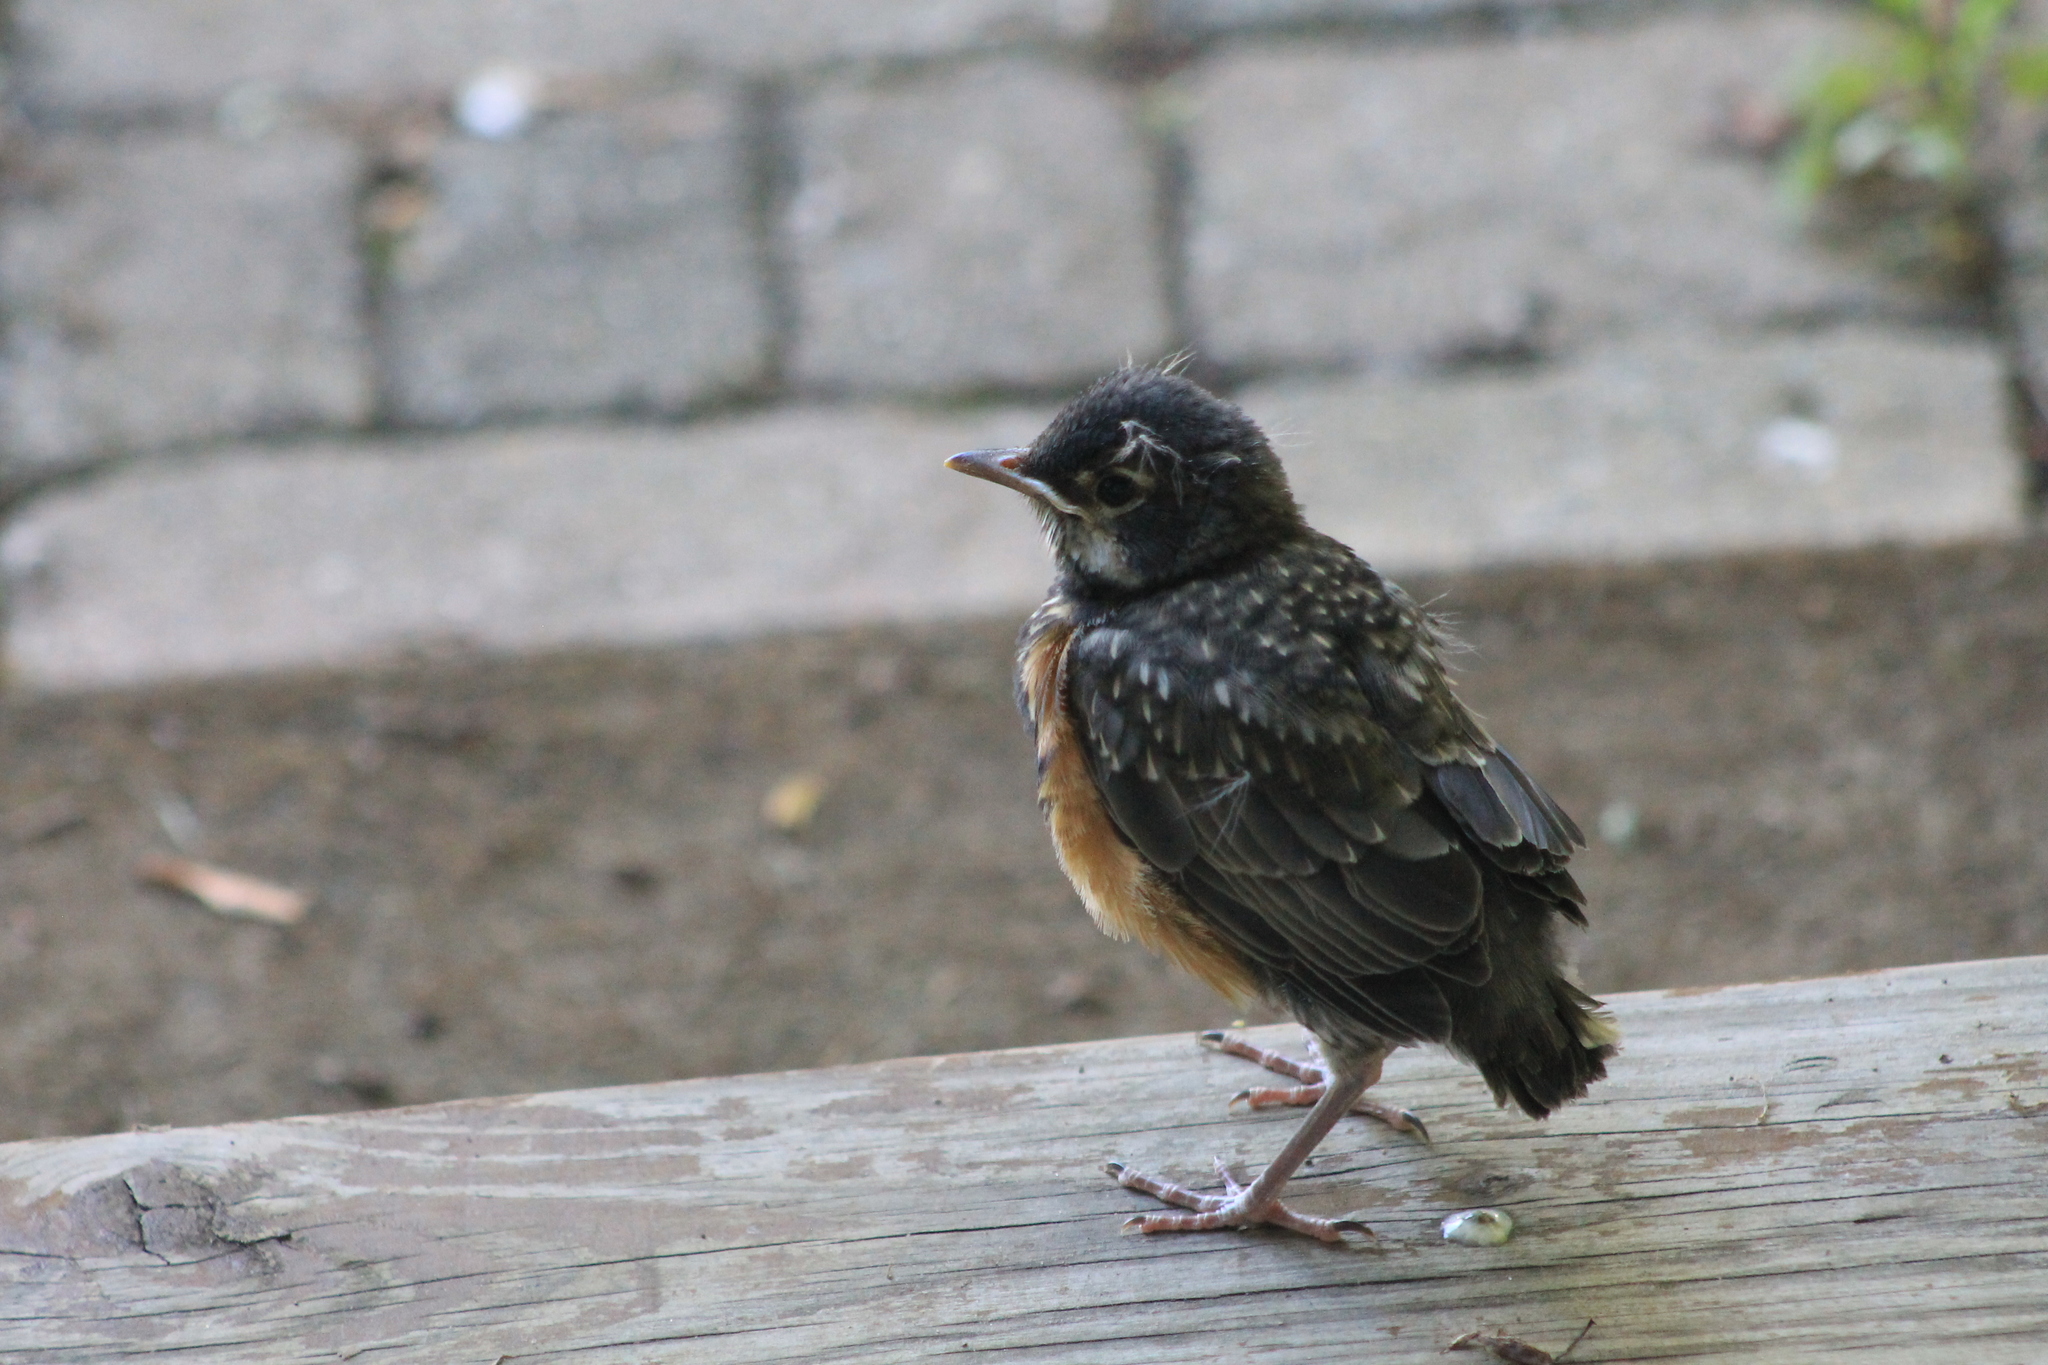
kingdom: Animalia
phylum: Chordata
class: Aves
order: Passeriformes
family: Turdidae
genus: Turdus
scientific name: Turdus migratorius
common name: American robin
